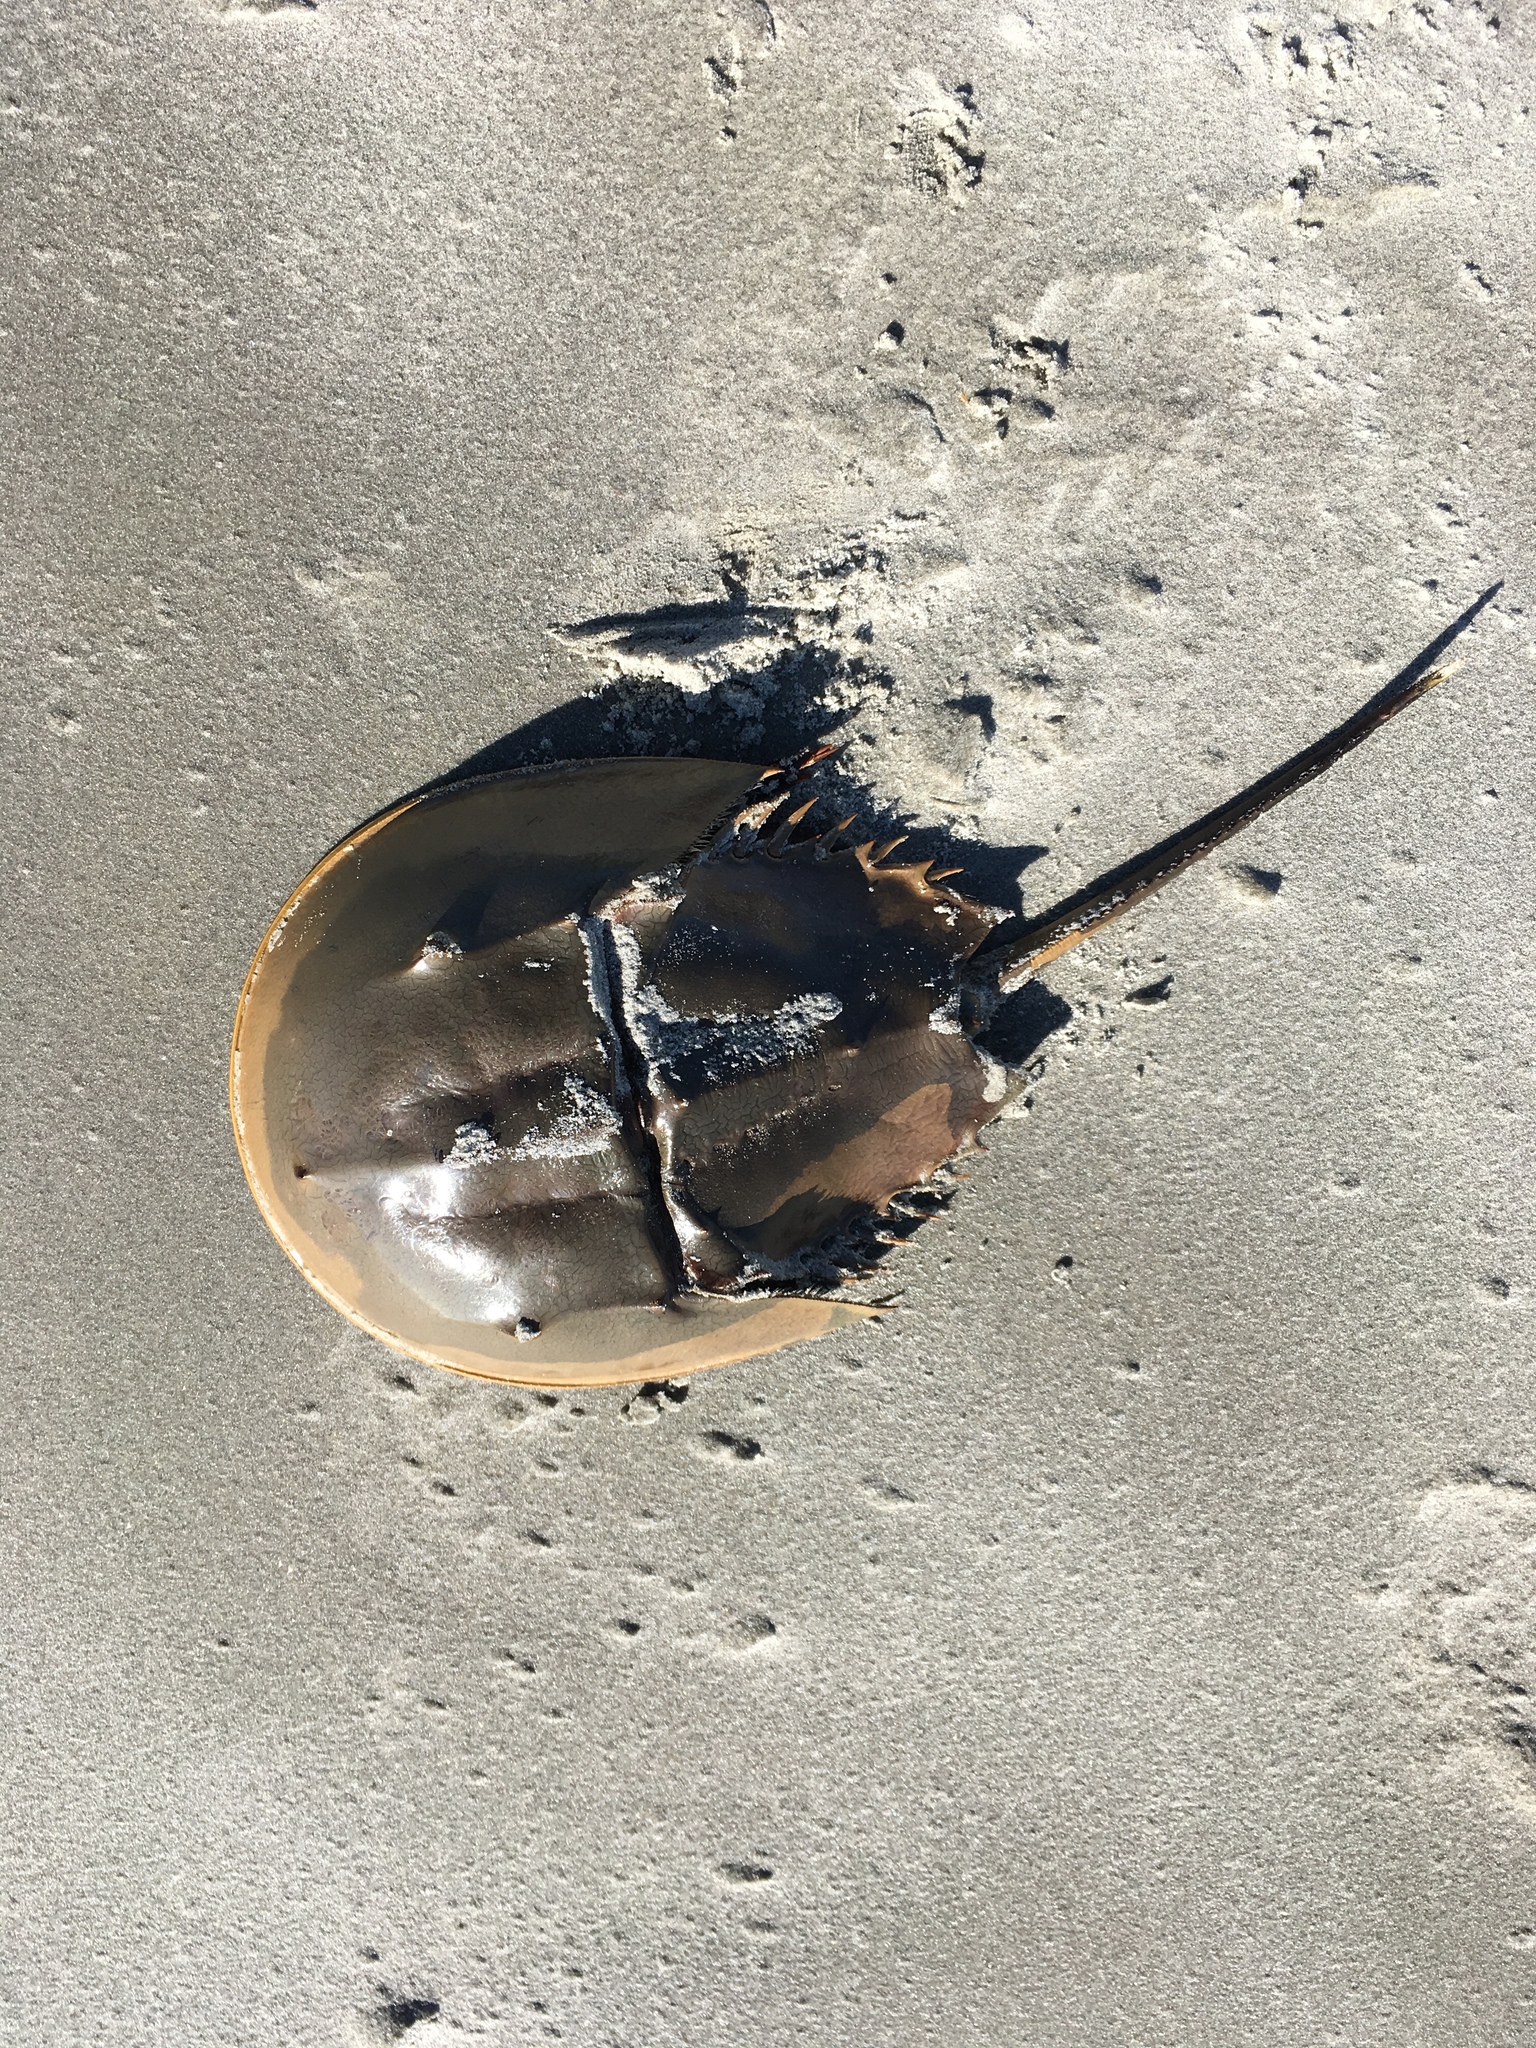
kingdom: Animalia
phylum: Arthropoda
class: Merostomata
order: Xiphosurida
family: Limulidae
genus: Limulus
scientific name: Limulus polyphemus
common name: Horseshoe crab
